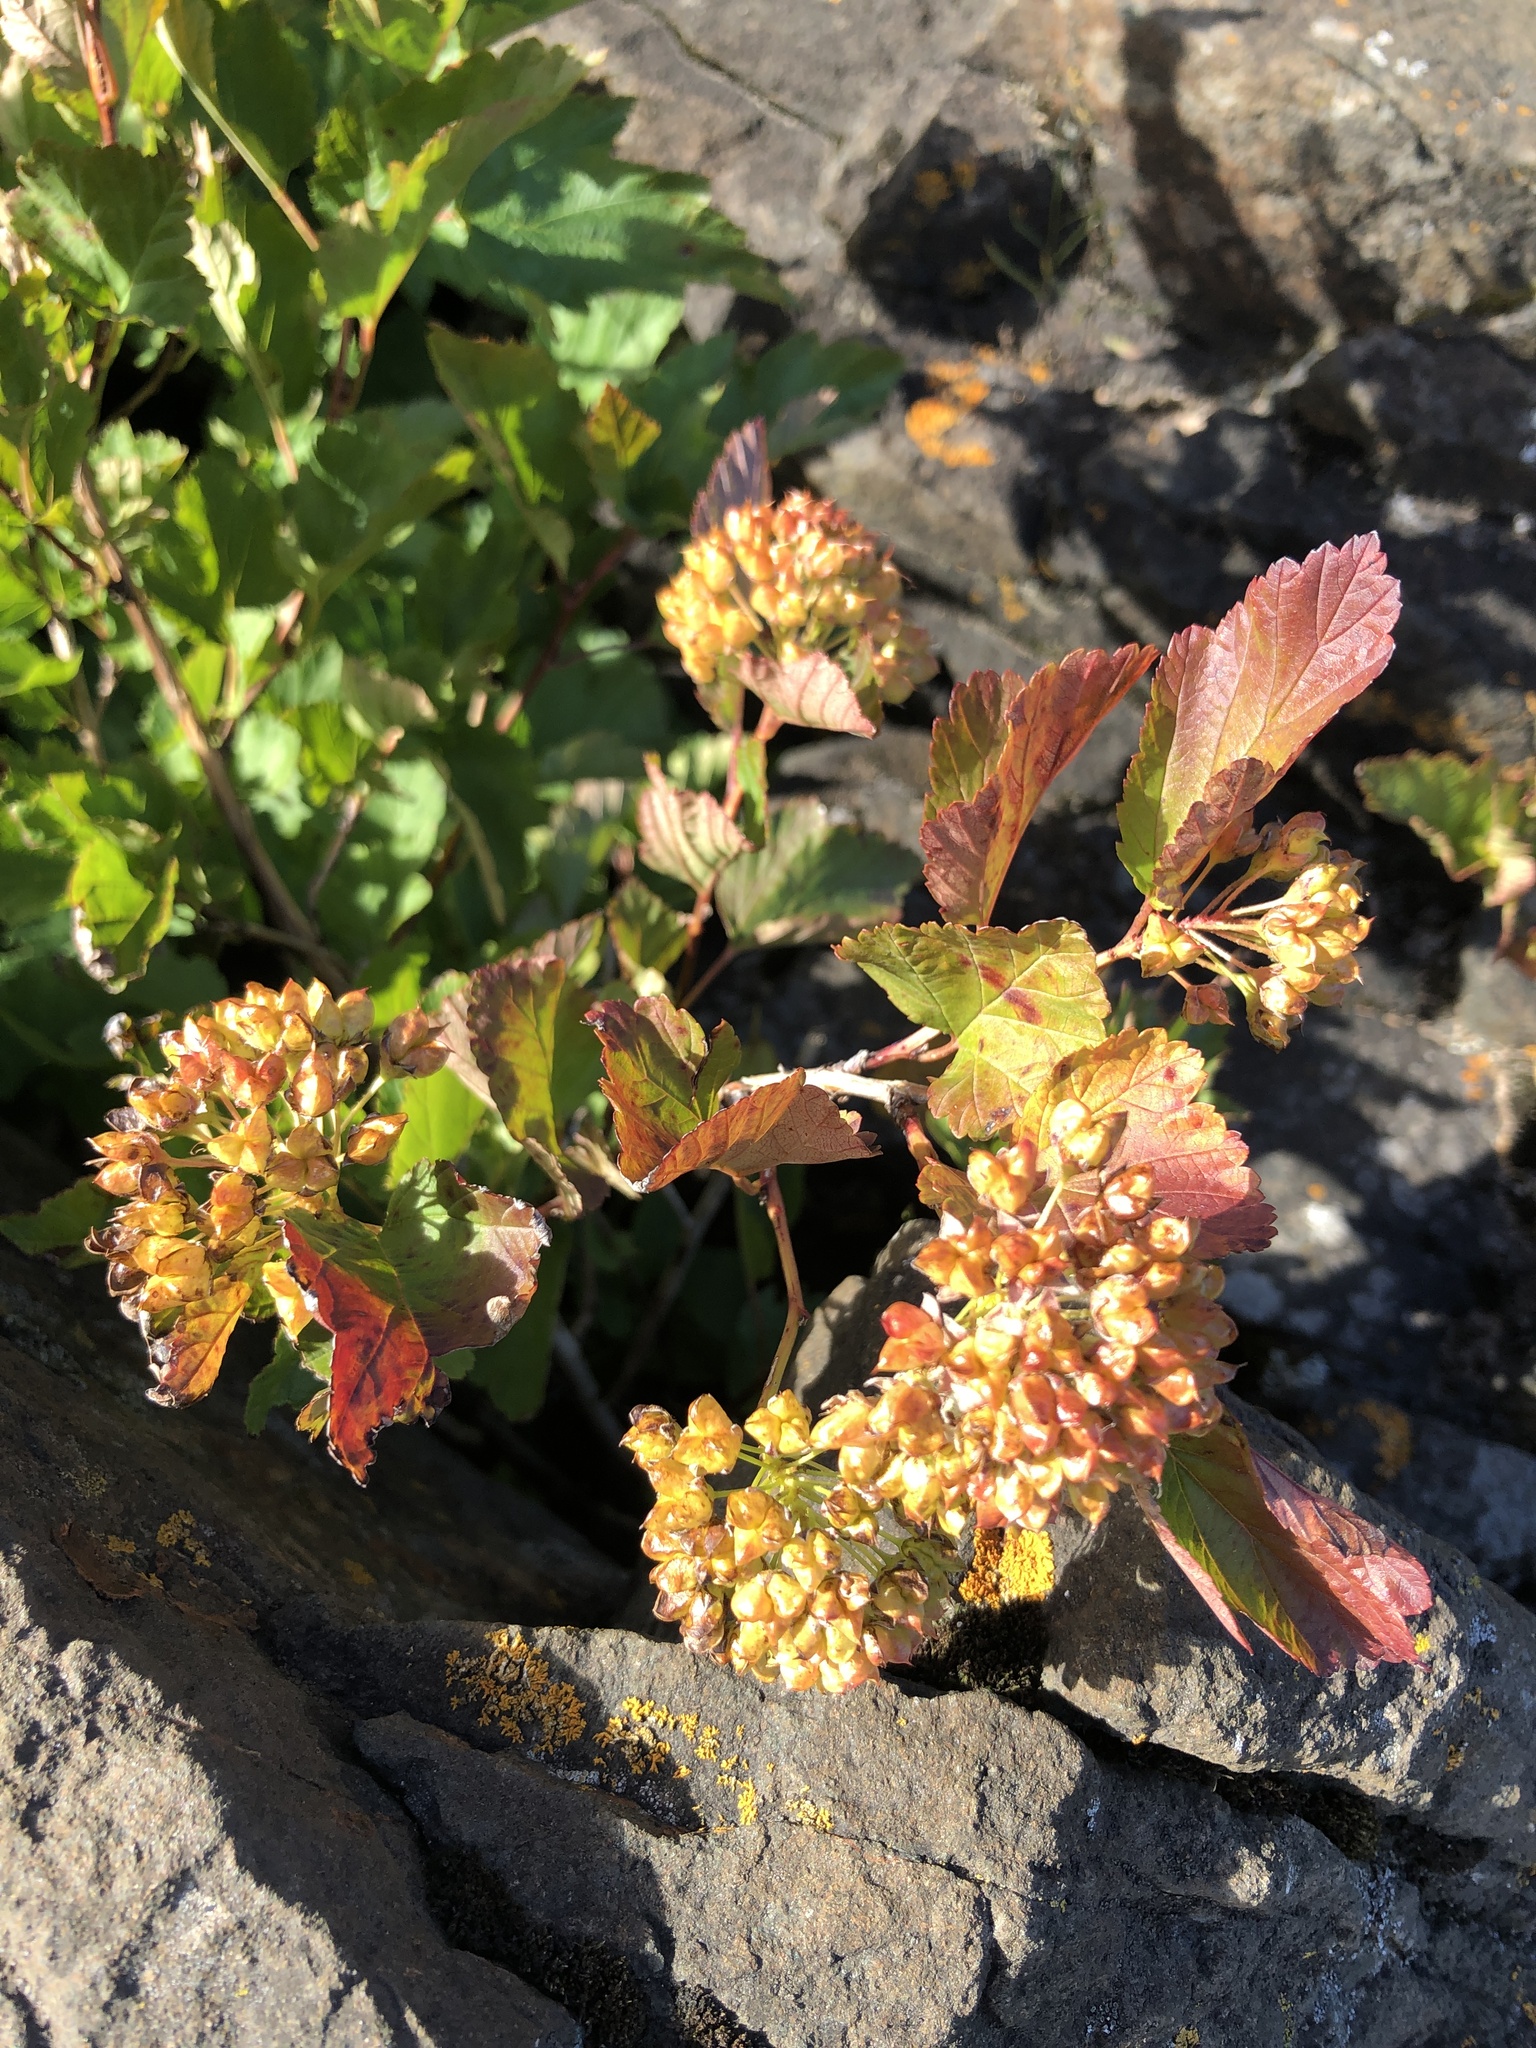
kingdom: Plantae
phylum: Tracheophyta
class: Magnoliopsida
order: Rosales
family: Rosaceae
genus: Physocarpus
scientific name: Physocarpus opulifolius
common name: Ninebark
